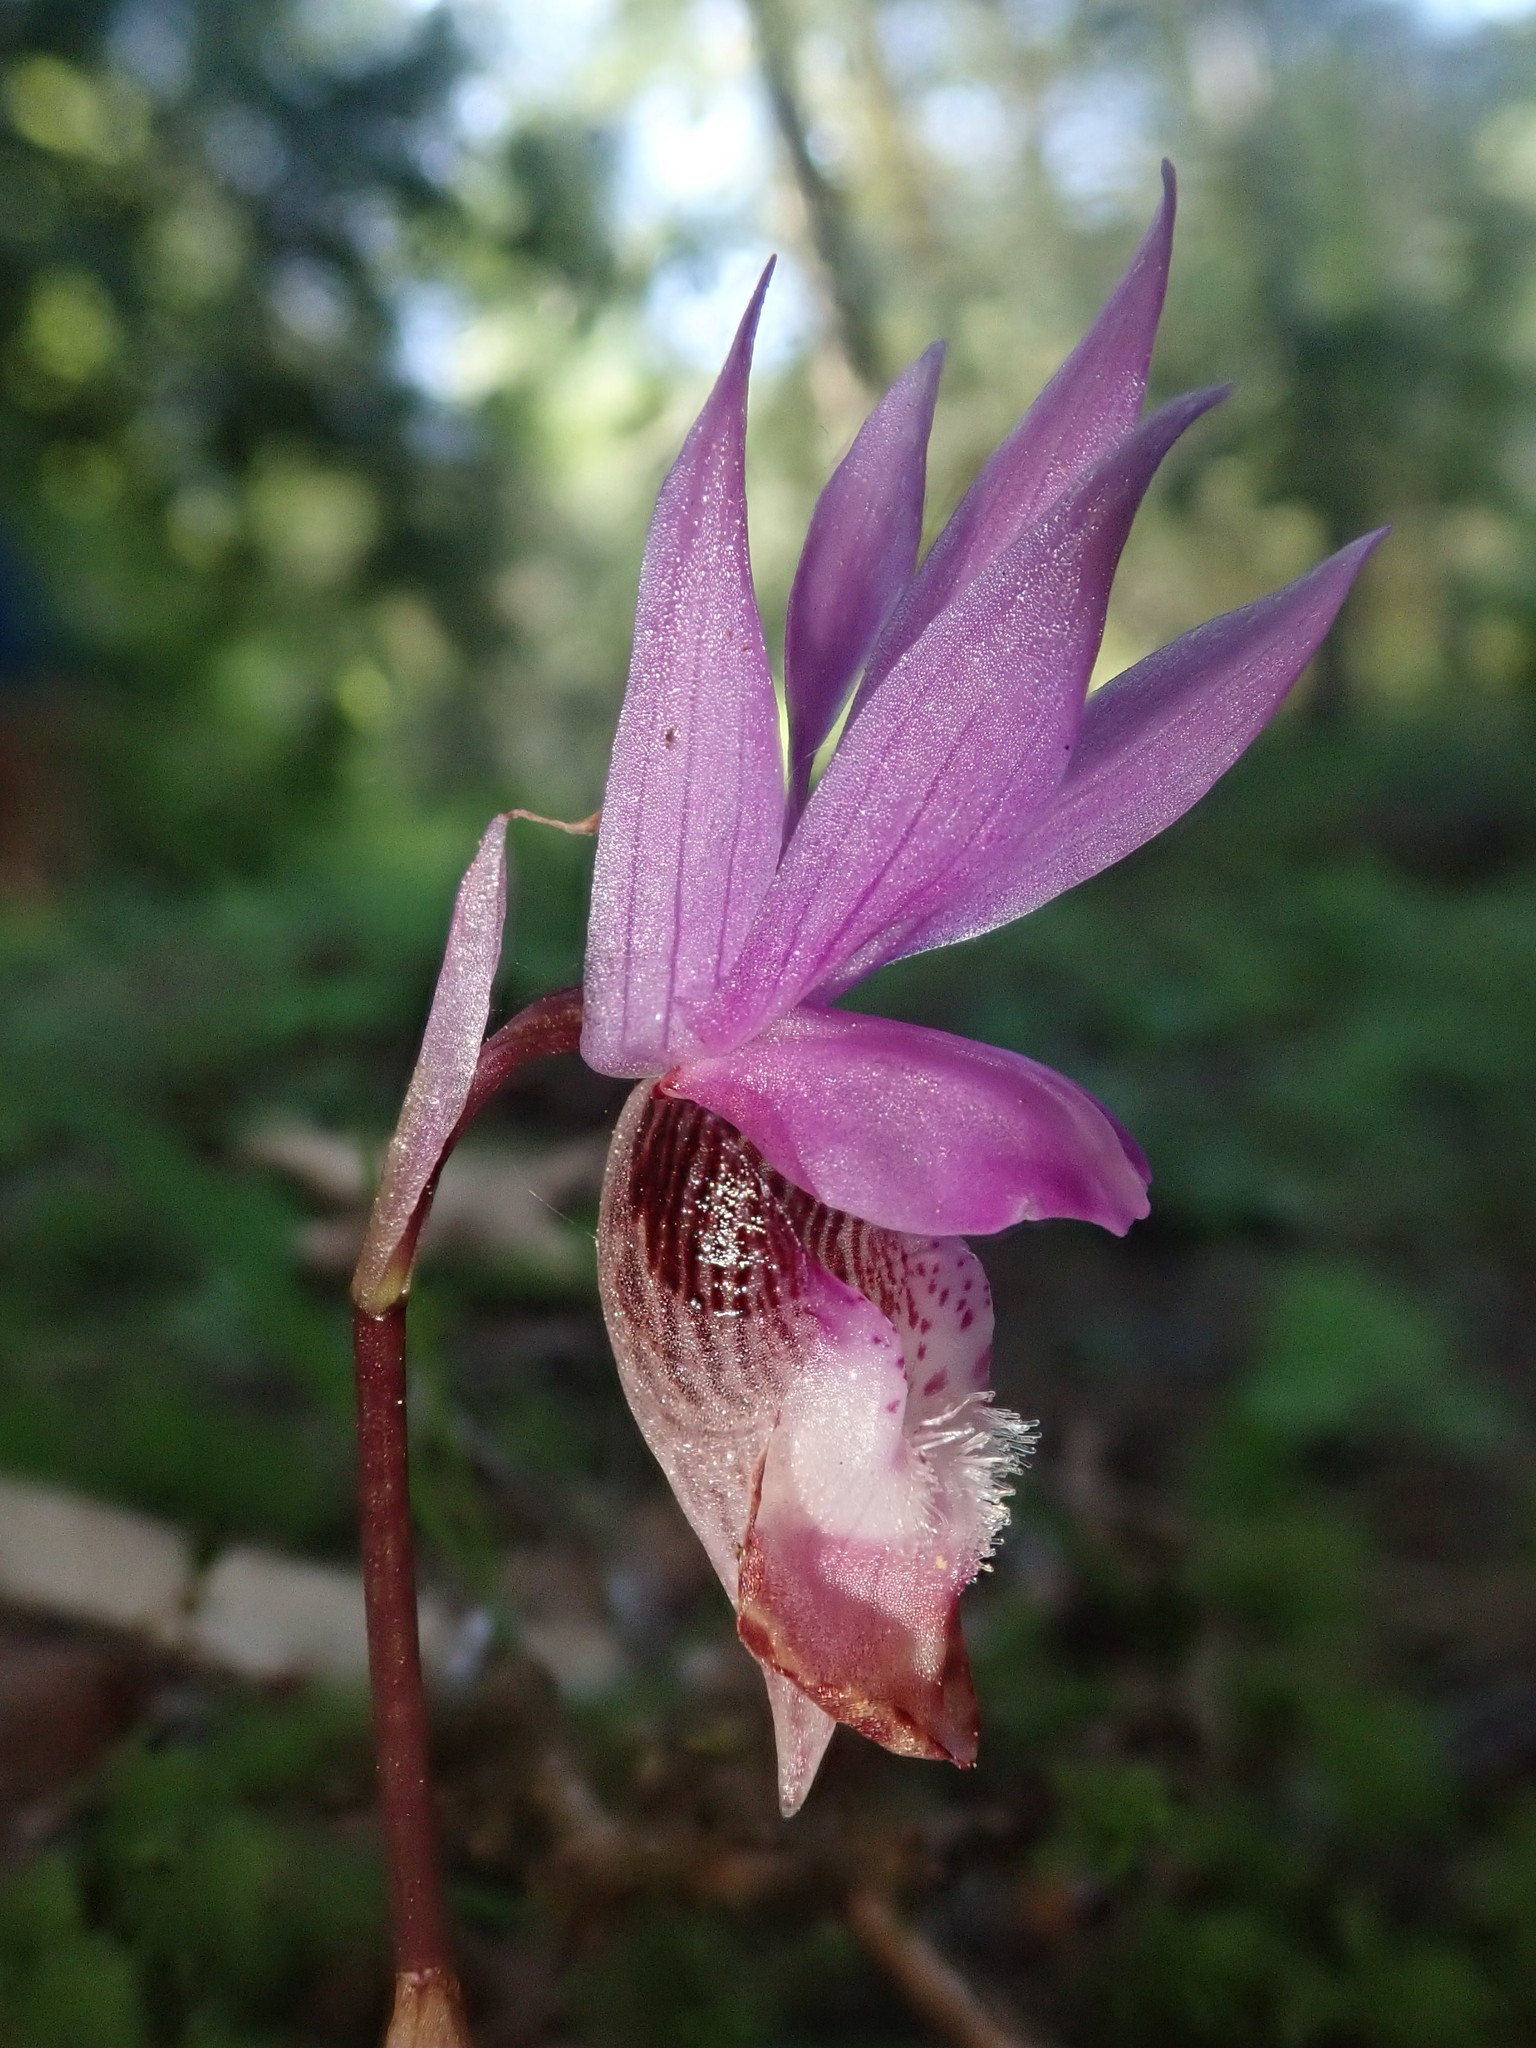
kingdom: Plantae
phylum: Tracheophyta
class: Liliopsida
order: Asparagales
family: Orchidaceae
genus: Calypso
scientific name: Calypso bulbosa
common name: Calypso
